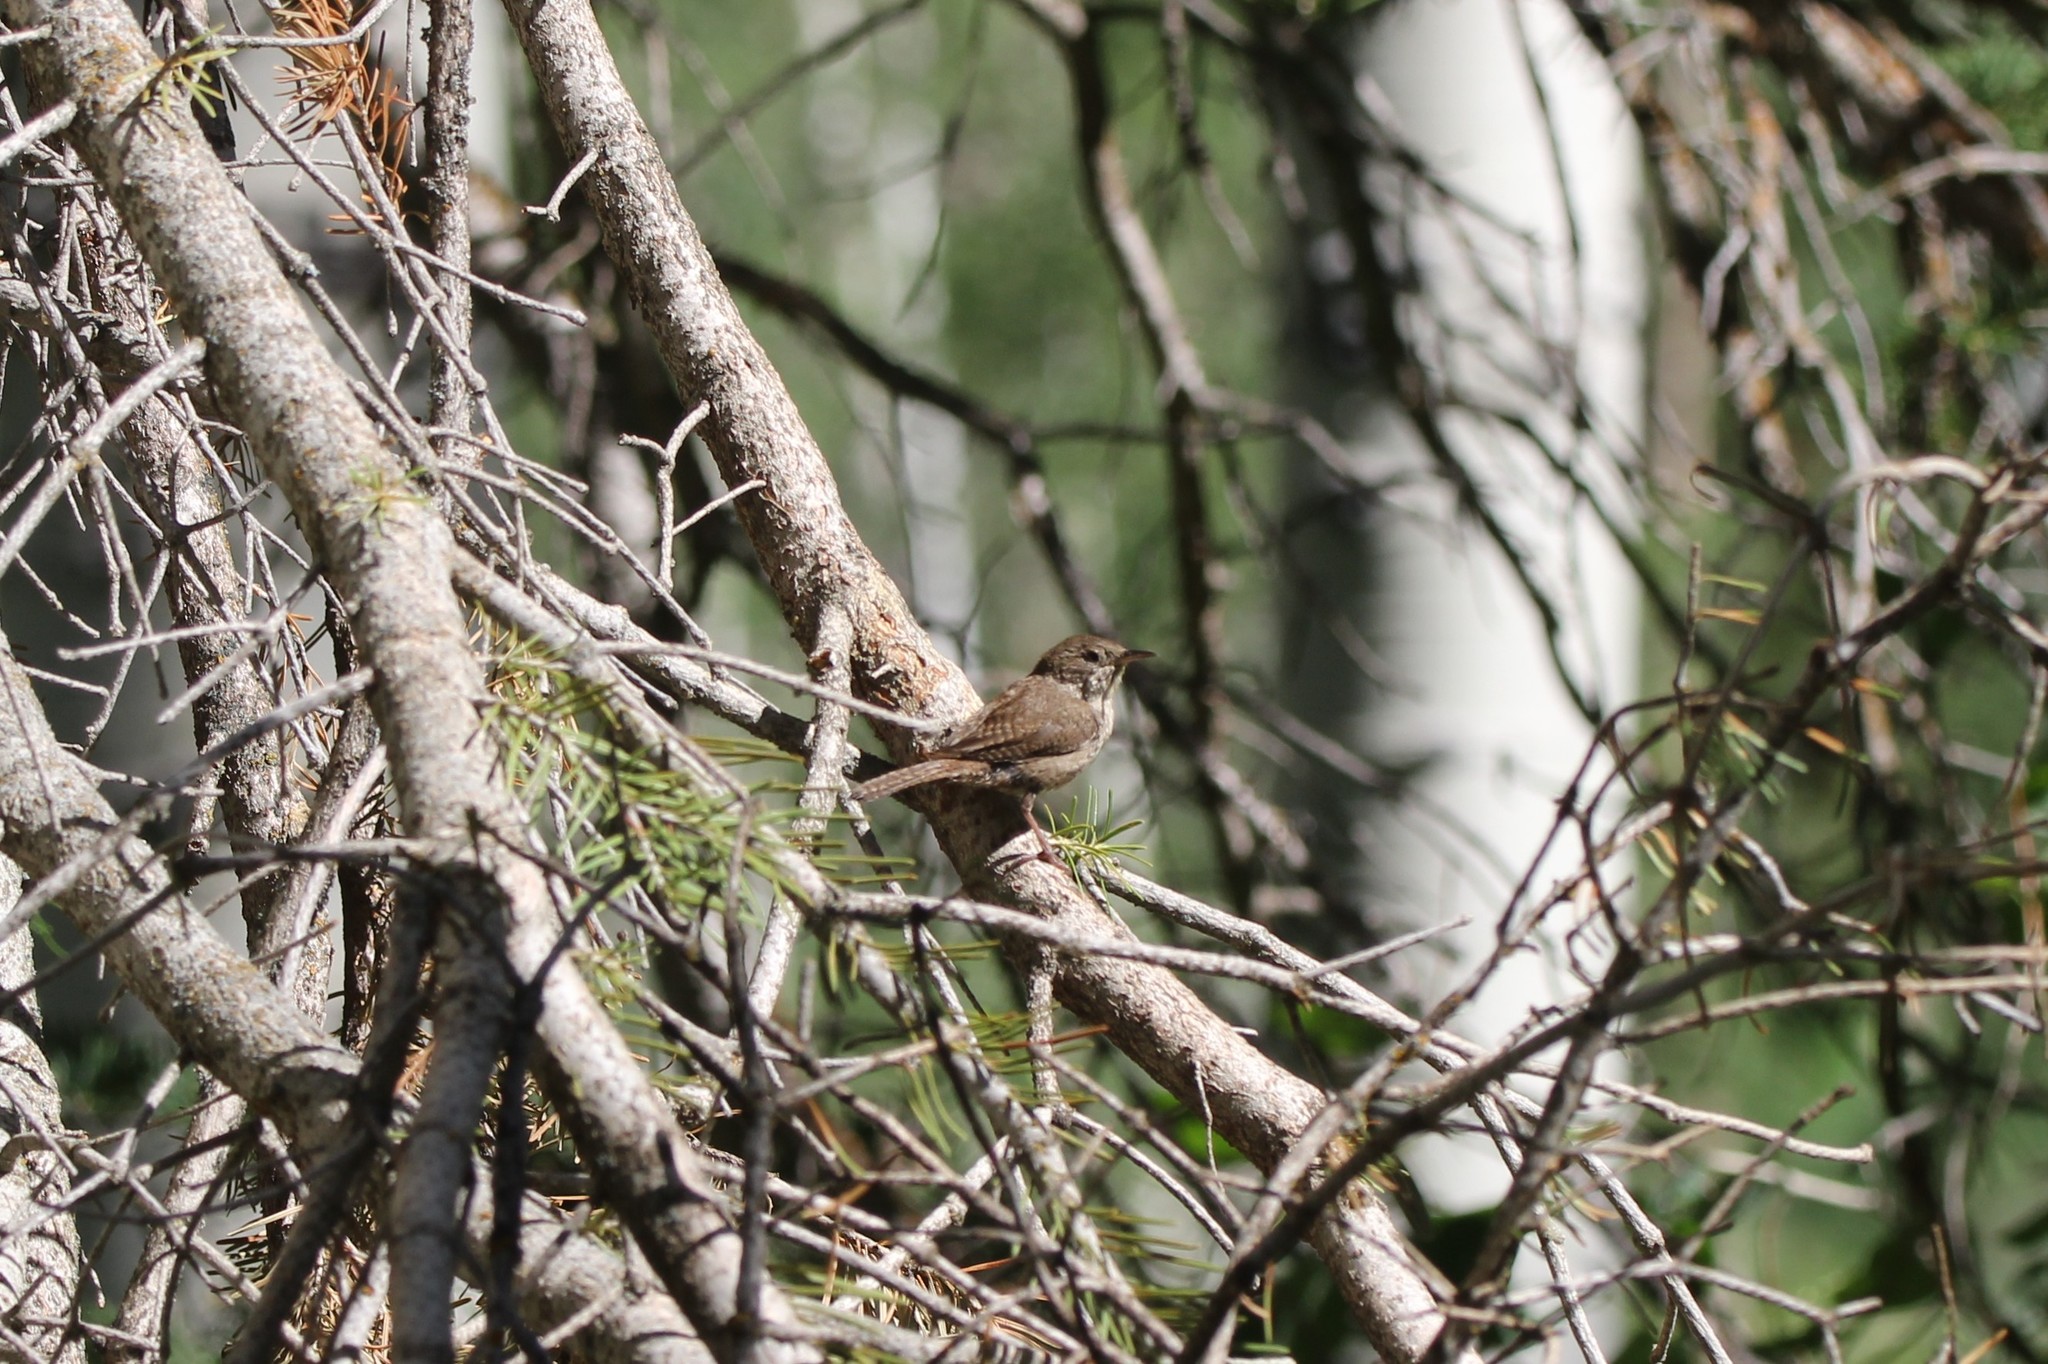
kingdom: Animalia
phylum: Chordata
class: Aves
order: Passeriformes
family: Troglodytidae
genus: Troglodytes
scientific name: Troglodytes aedon
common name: House wren
